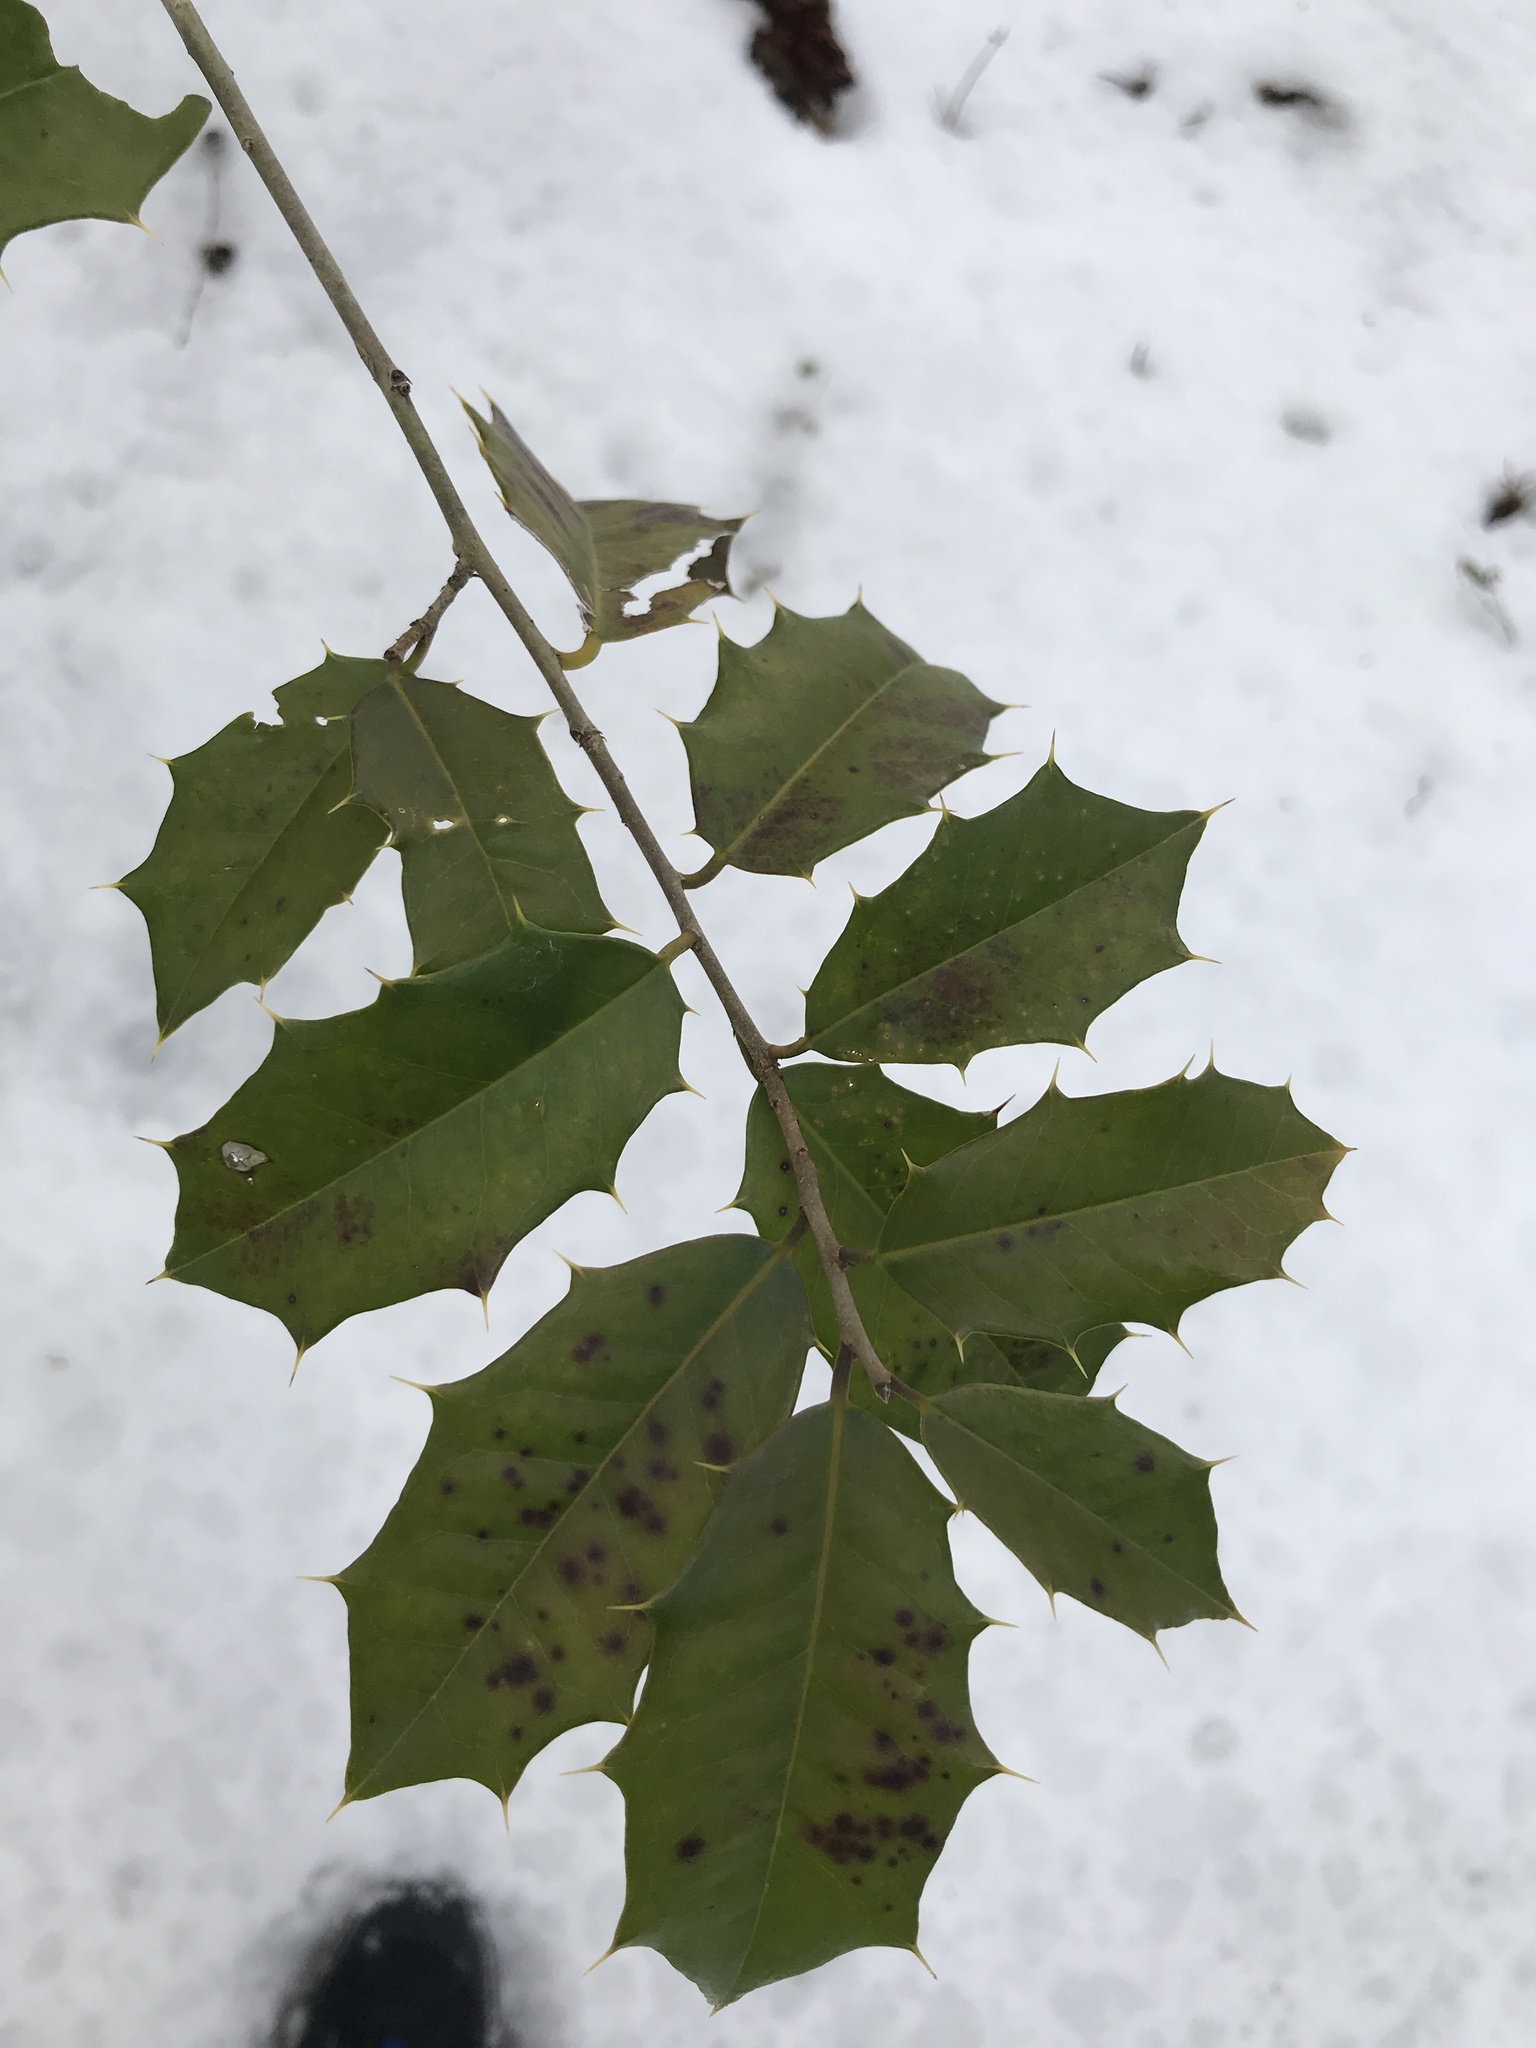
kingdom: Plantae
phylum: Tracheophyta
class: Magnoliopsida
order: Aquifoliales
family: Aquifoliaceae
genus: Ilex
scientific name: Ilex opaca
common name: American holly
